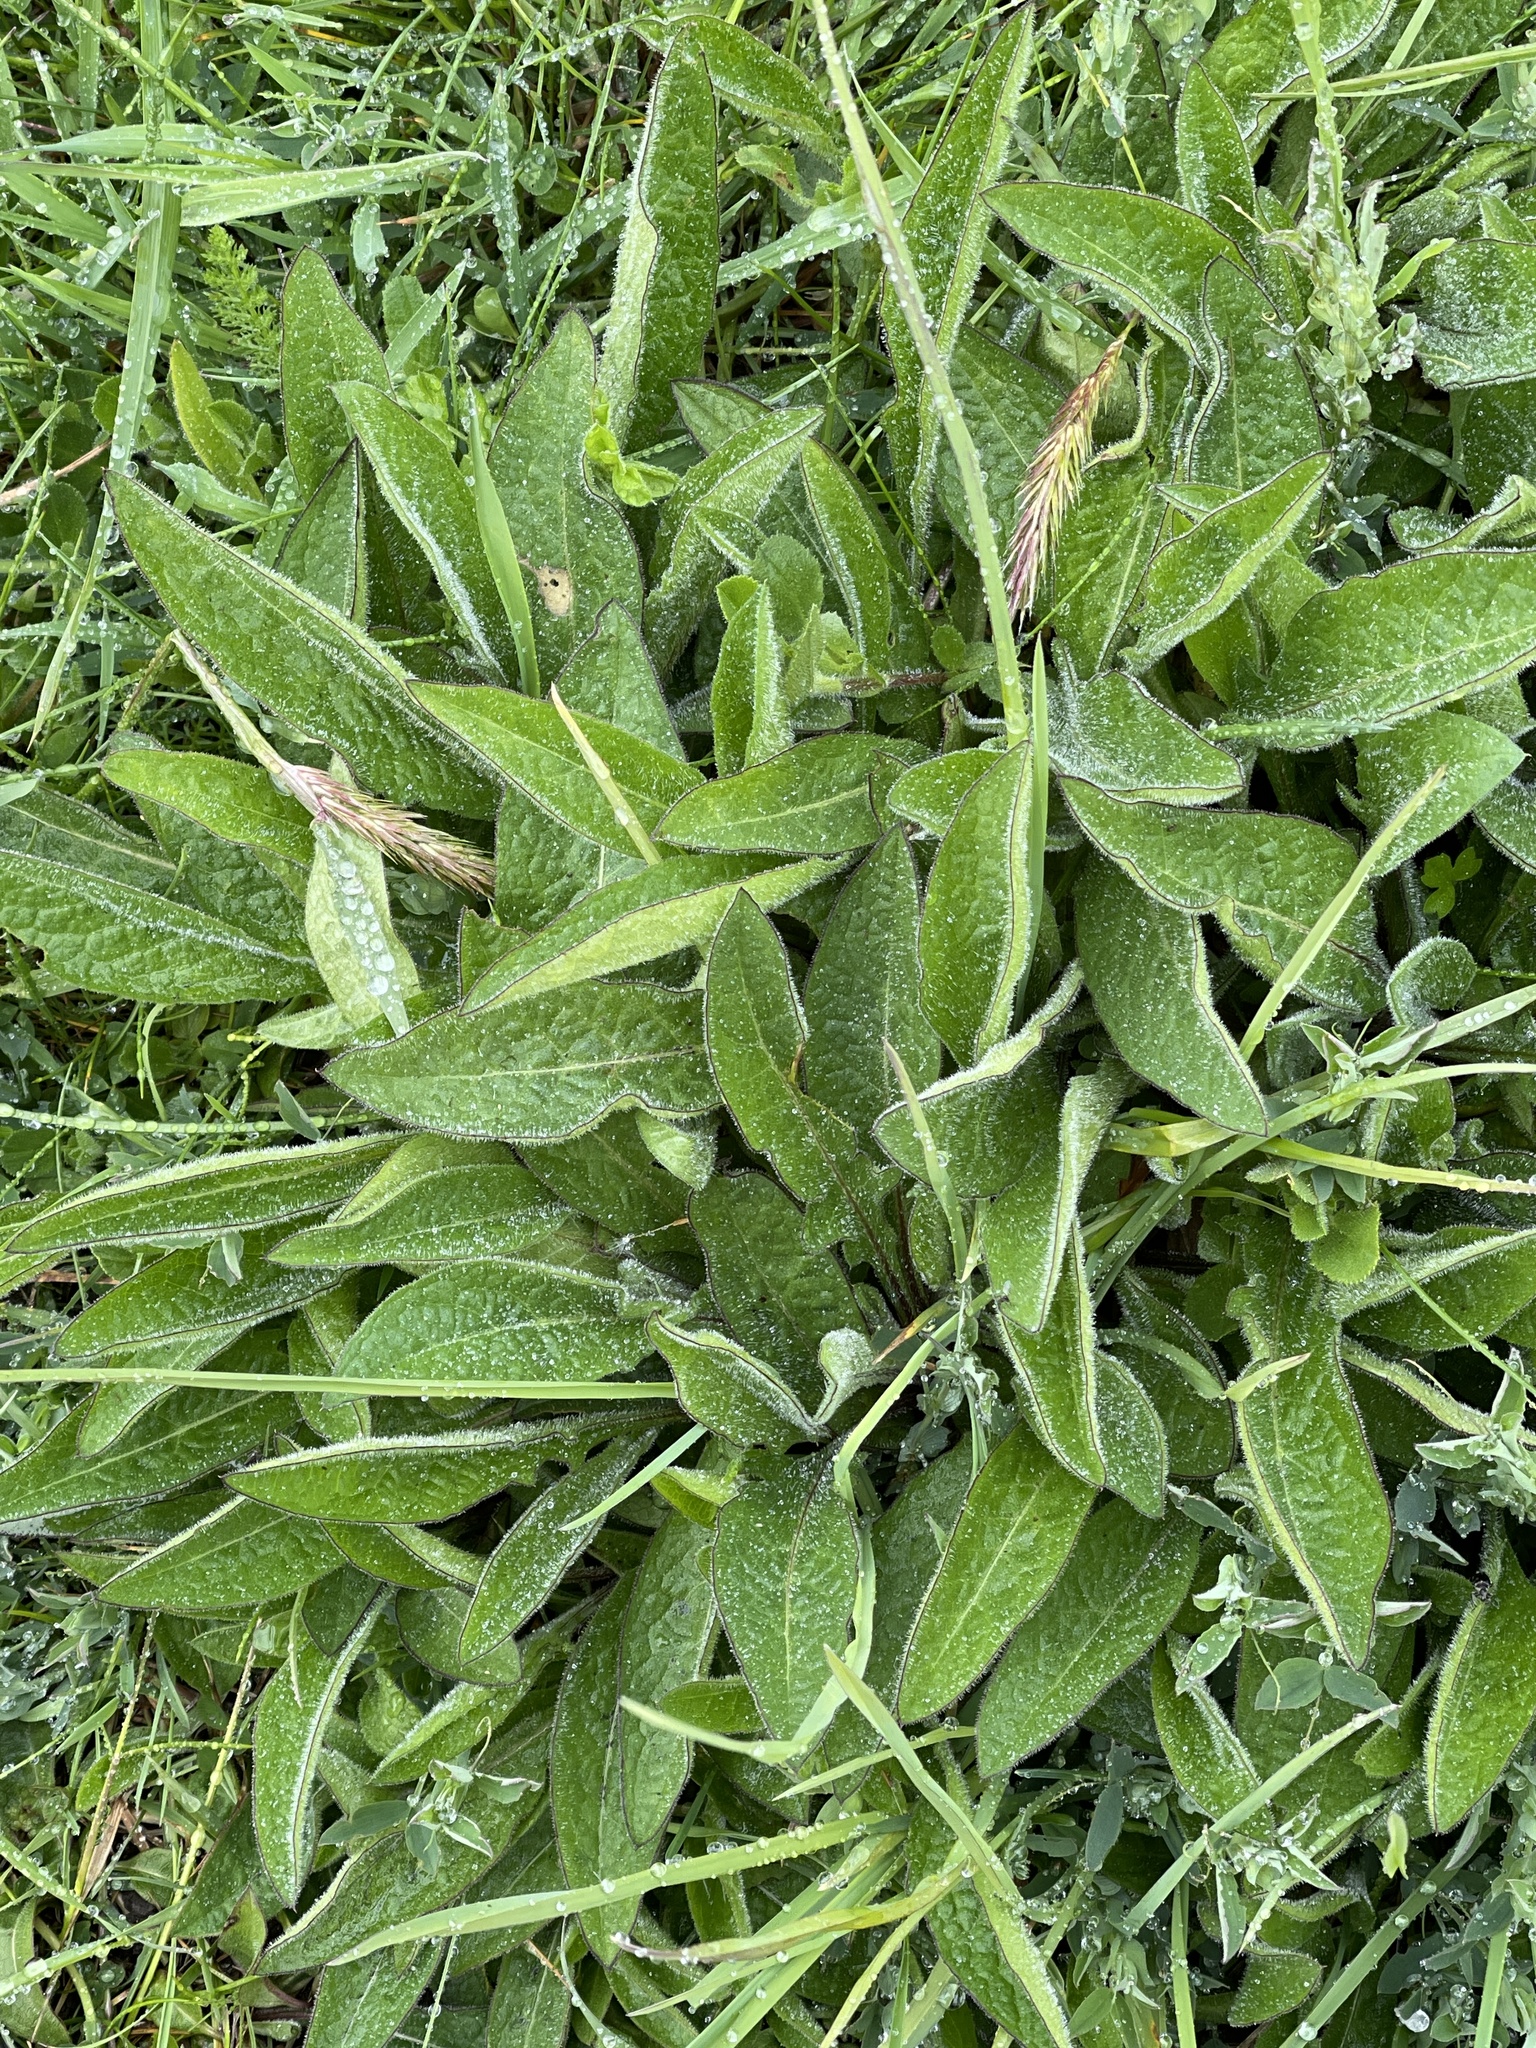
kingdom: Plantae
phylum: Tracheophyta
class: Magnoliopsida
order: Asterales
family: Asteraceae
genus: Centaurea
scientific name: Centaurea nigra
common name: Lesser knapweed
